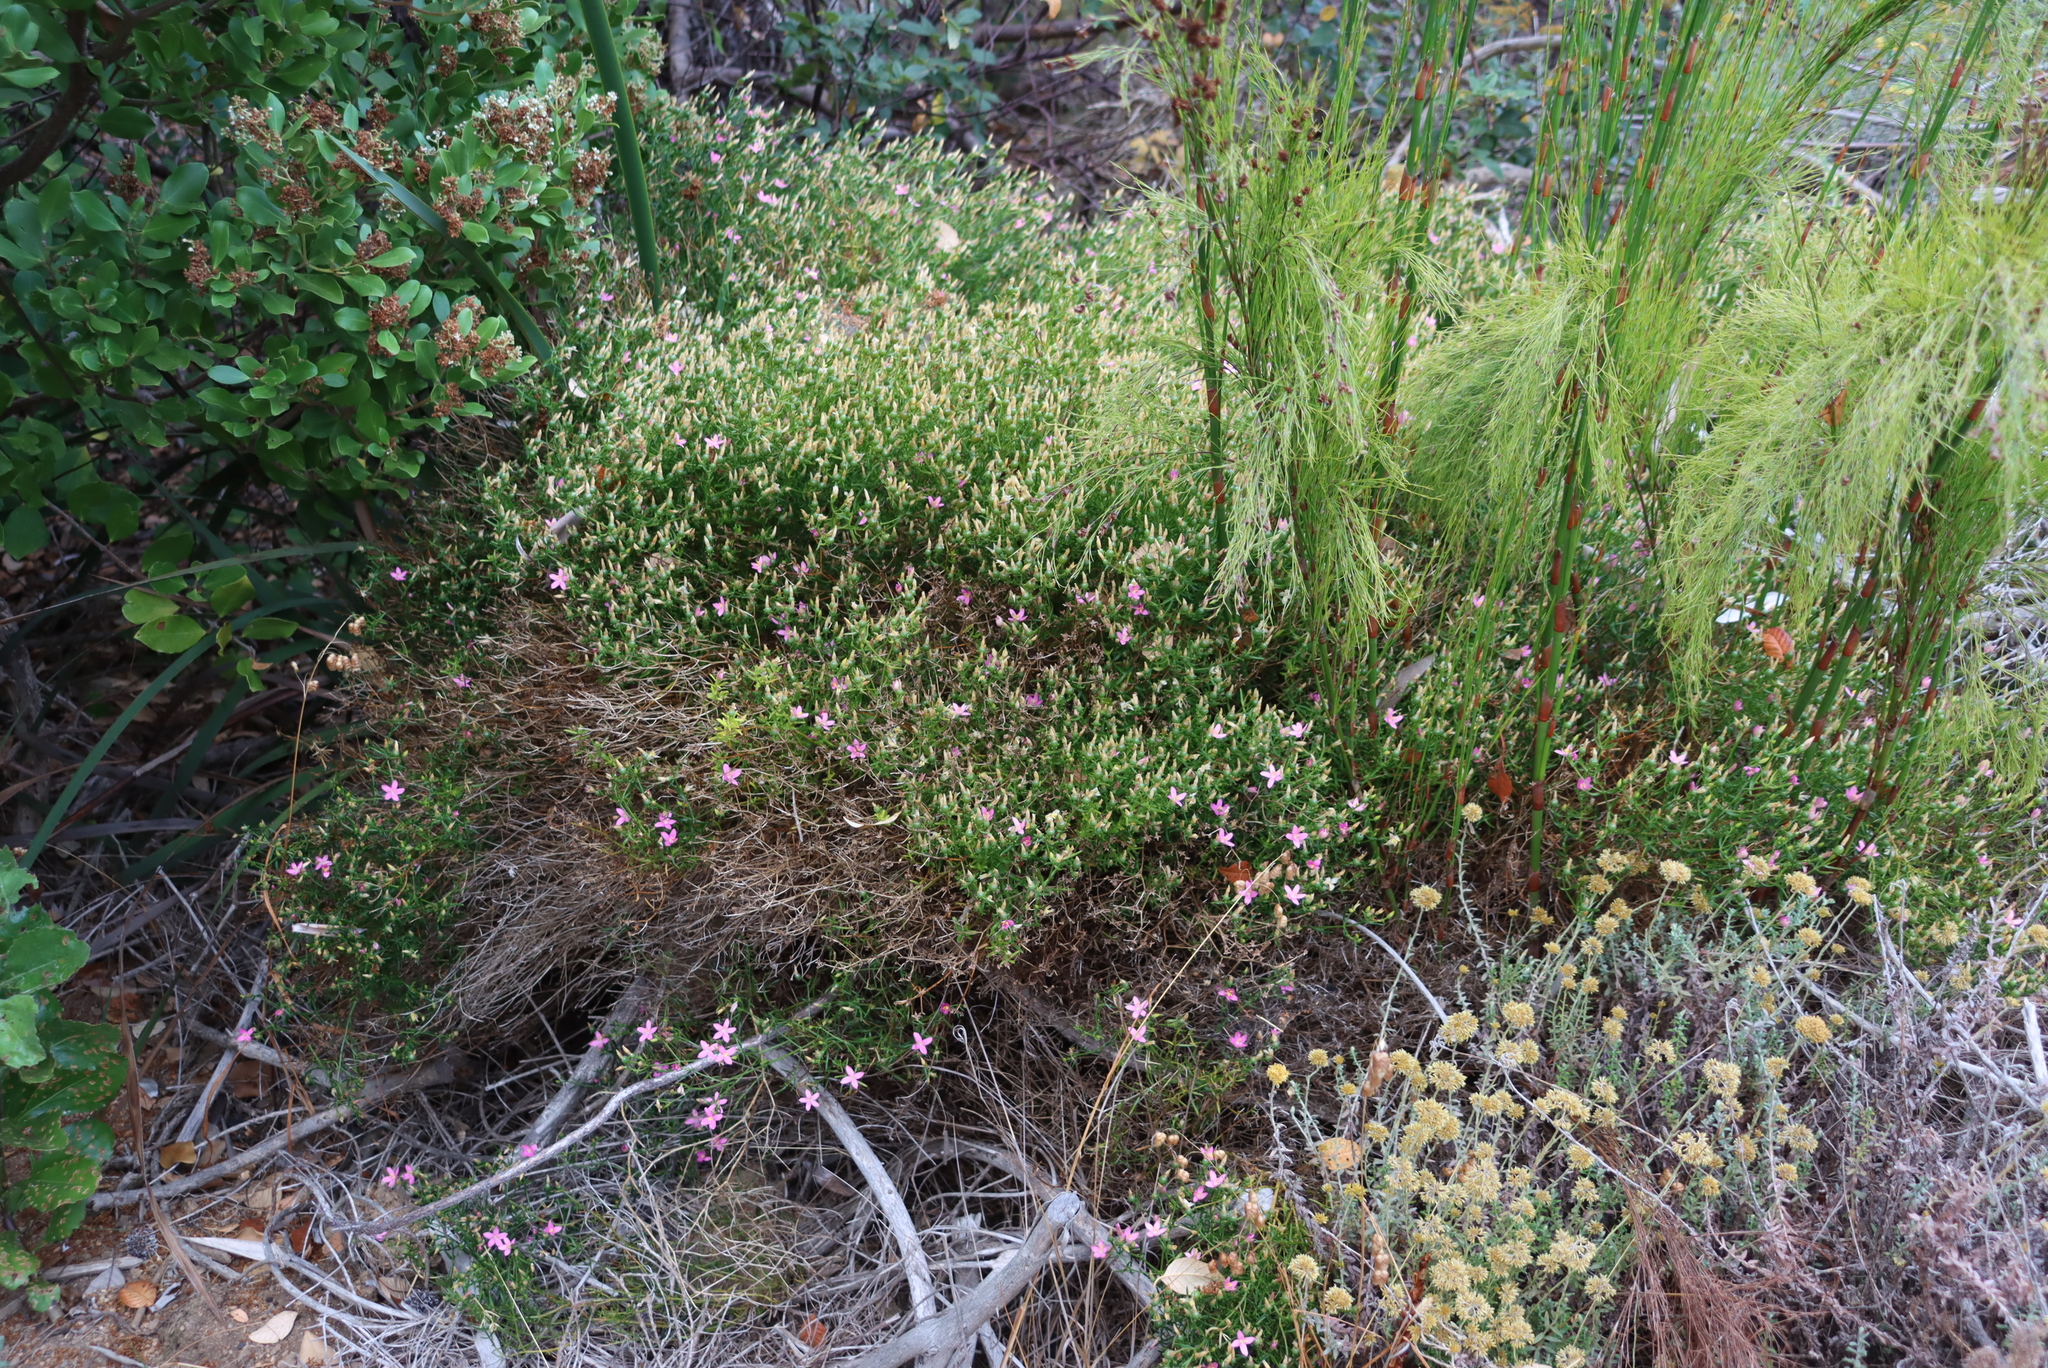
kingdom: Plantae
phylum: Tracheophyta
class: Magnoliopsida
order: Gentianales
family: Gentianaceae
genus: Chironia
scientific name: Chironia baccifera
